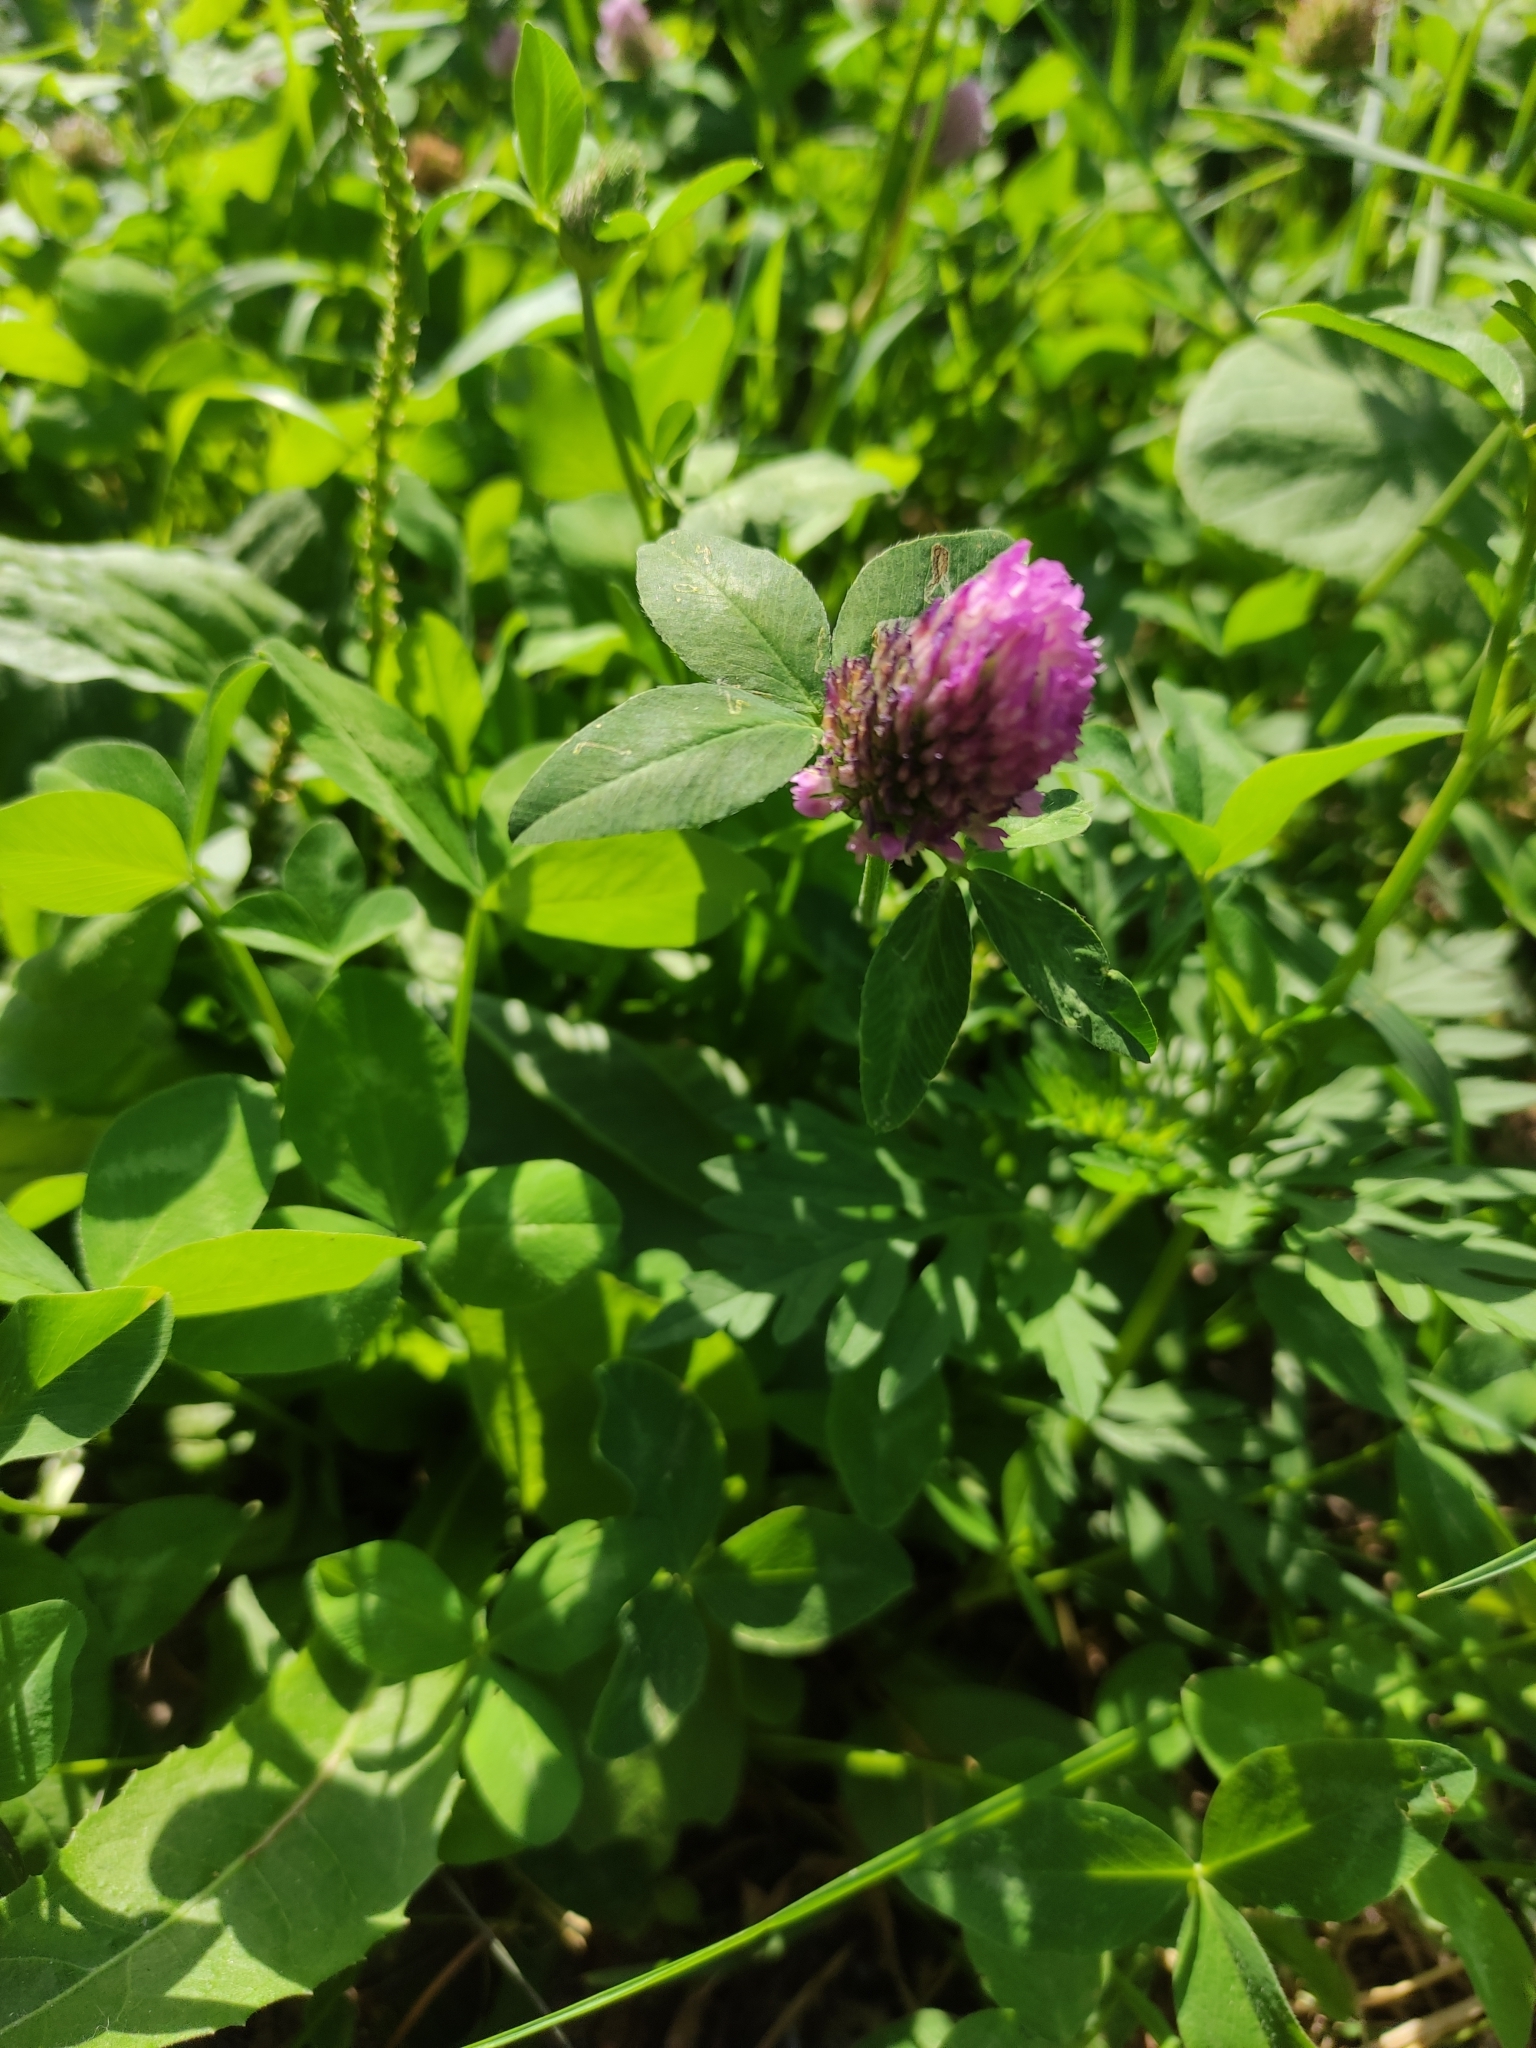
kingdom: Plantae
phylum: Tracheophyta
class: Magnoliopsida
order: Fabales
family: Fabaceae
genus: Trifolium
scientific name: Trifolium pratense
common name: Red clover
